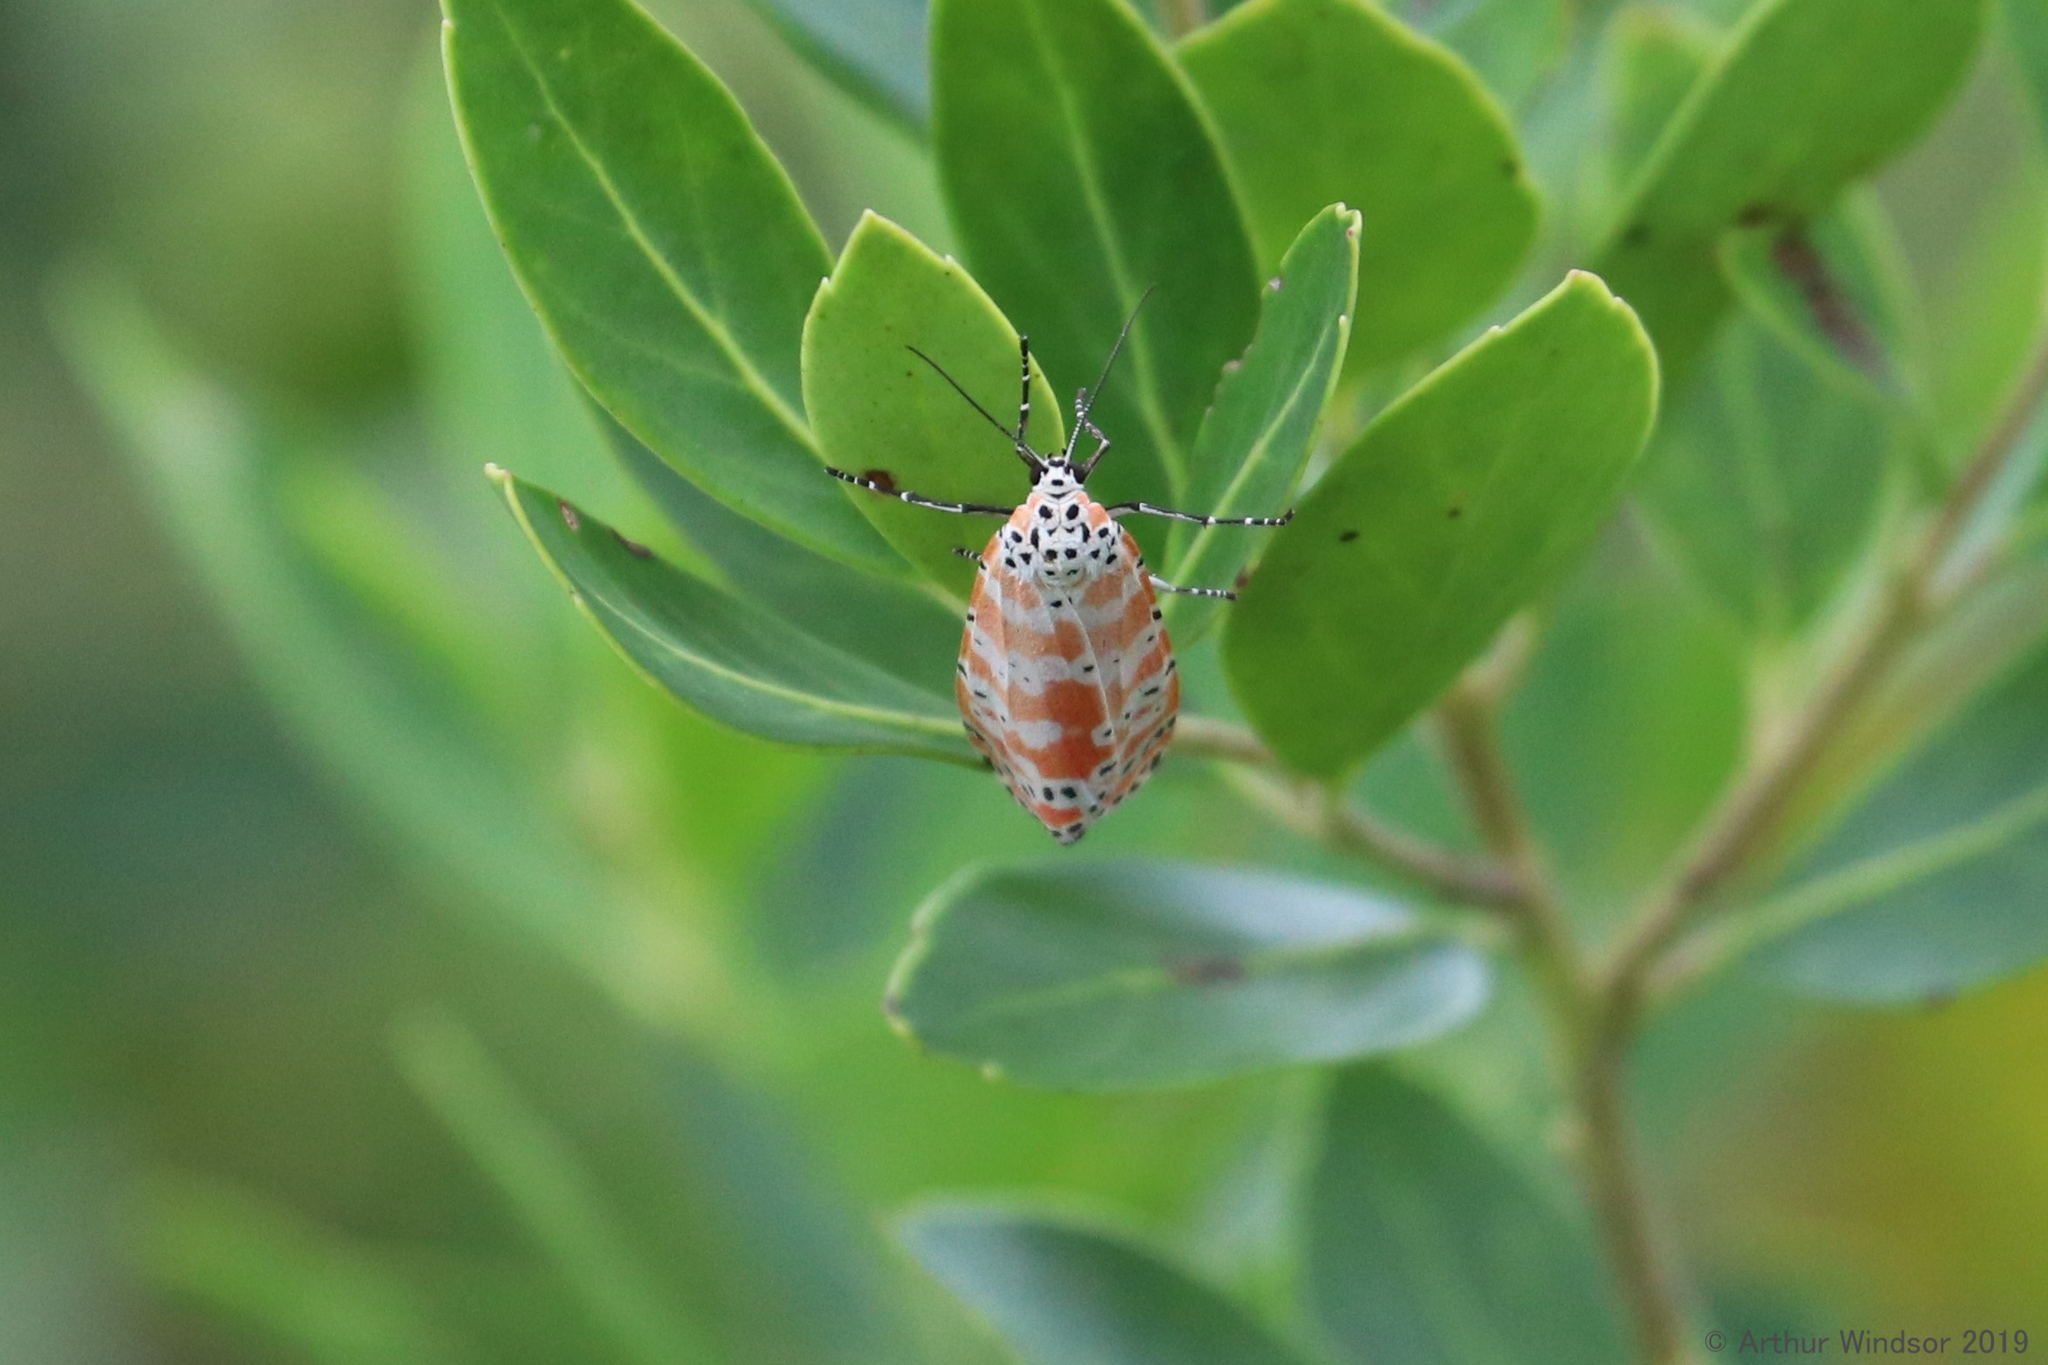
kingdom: Animalia
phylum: Arthropoda
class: Insecta
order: Lepidoptera
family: Erebidae
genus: Utetheisa
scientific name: Utetheisa ornatrix
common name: Beautiful utetheisa
